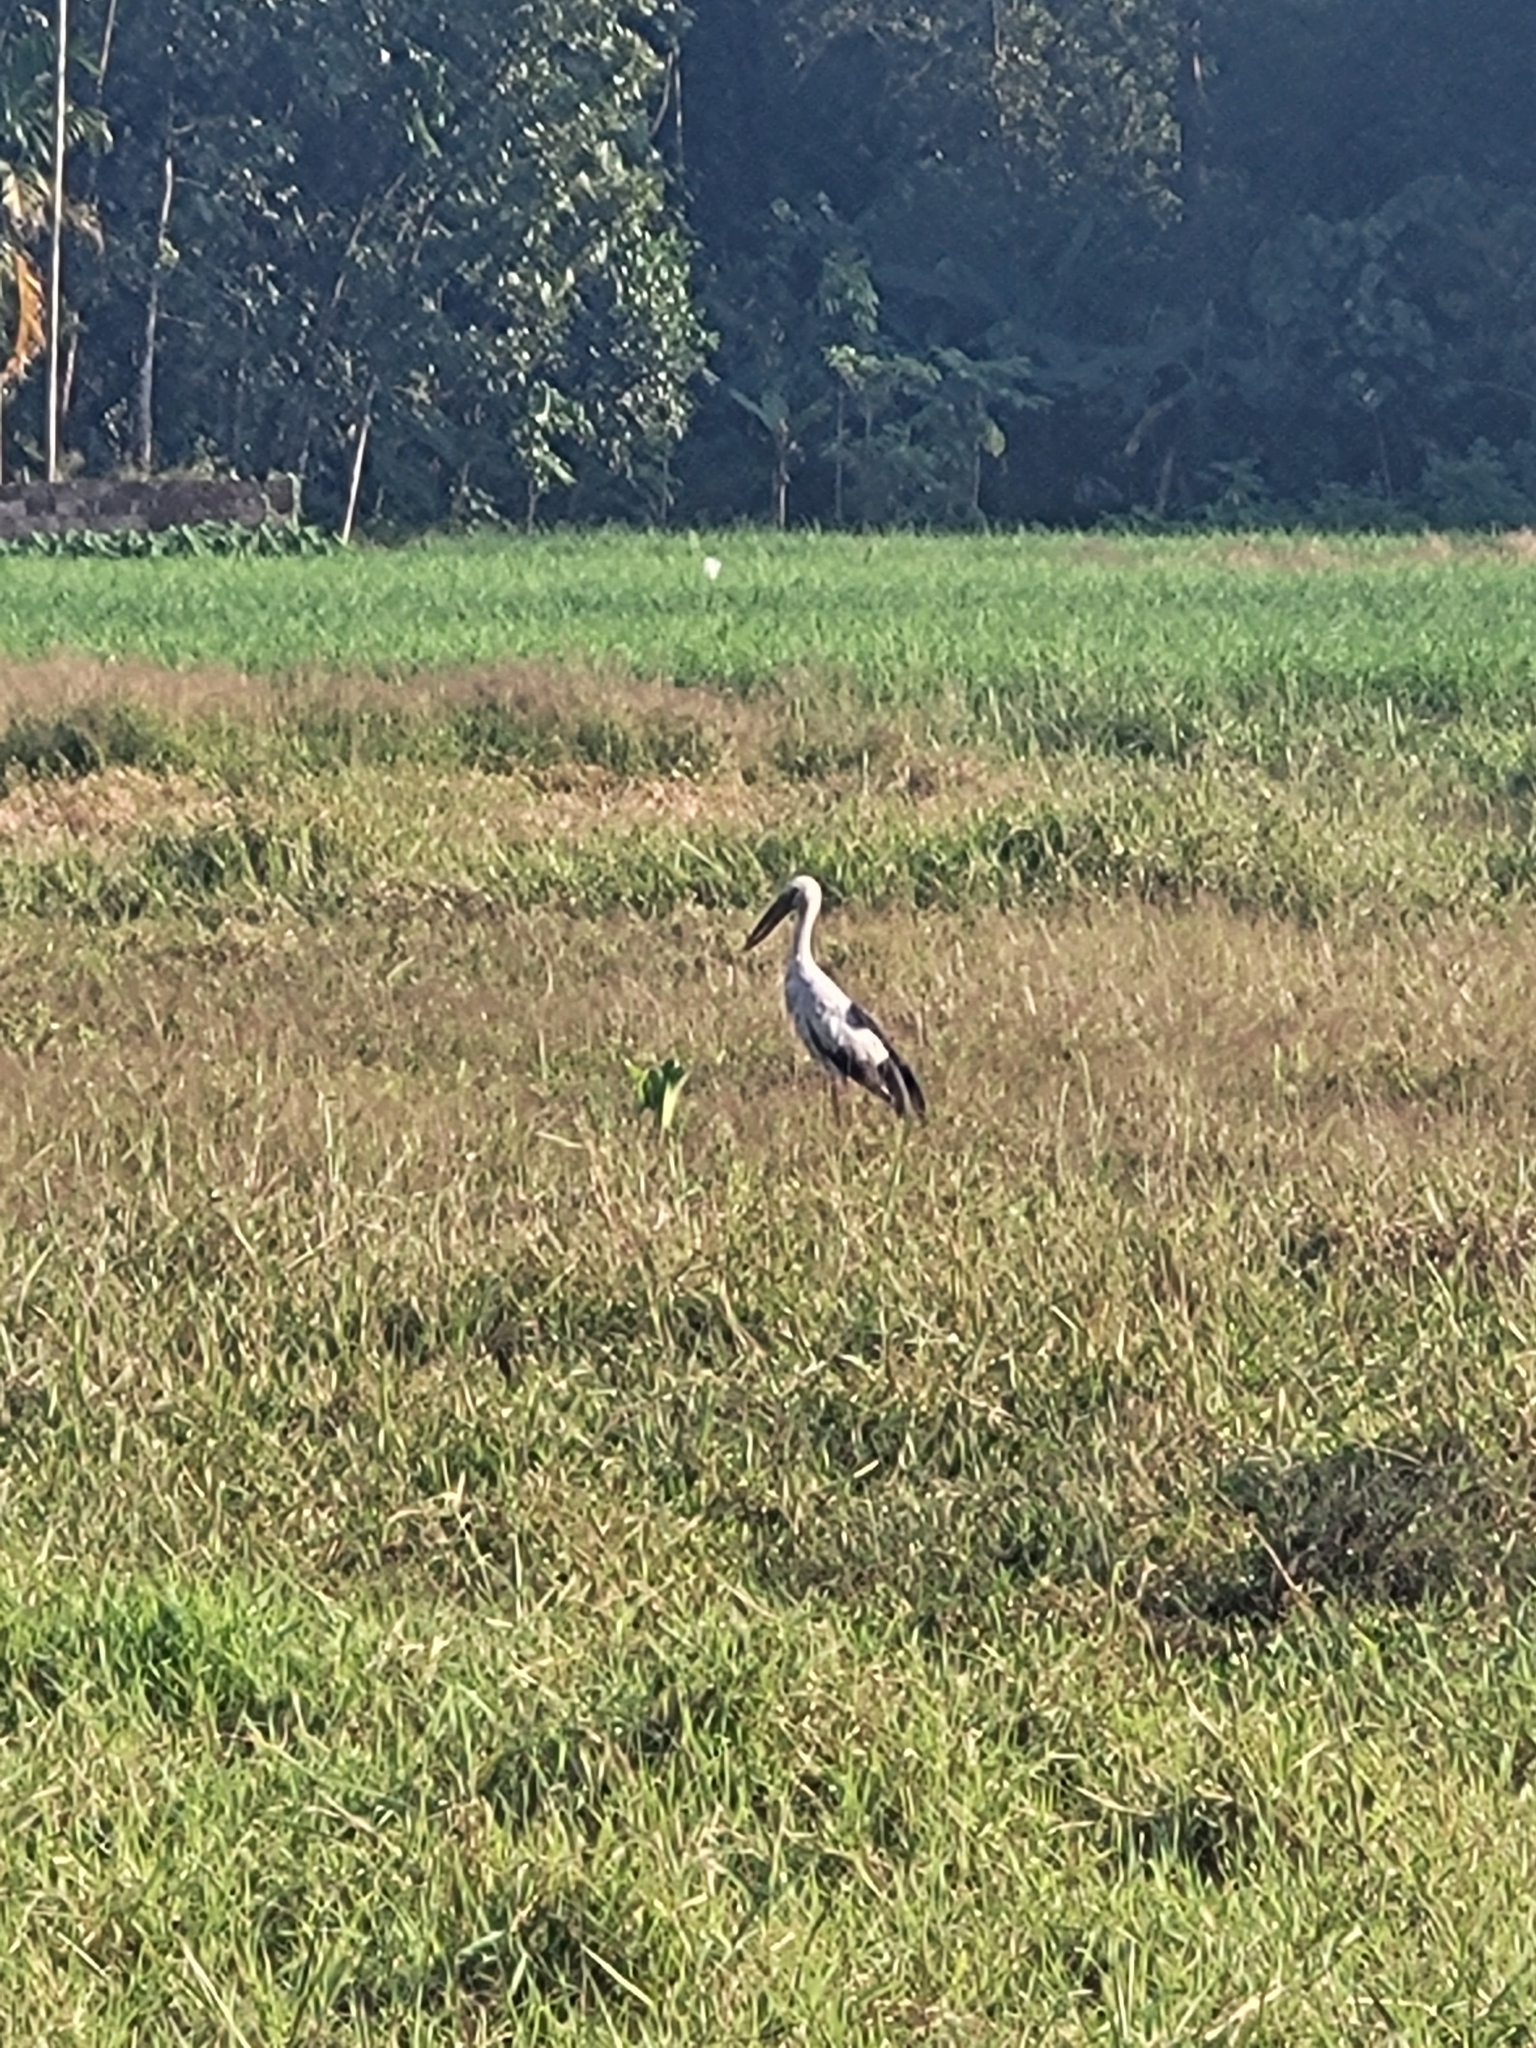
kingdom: Animalia
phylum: Chordata
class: Aves
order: Ciconiiformes
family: Ciconiidae
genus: Anastomus
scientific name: Anastomus oscitans
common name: Asian openbill
